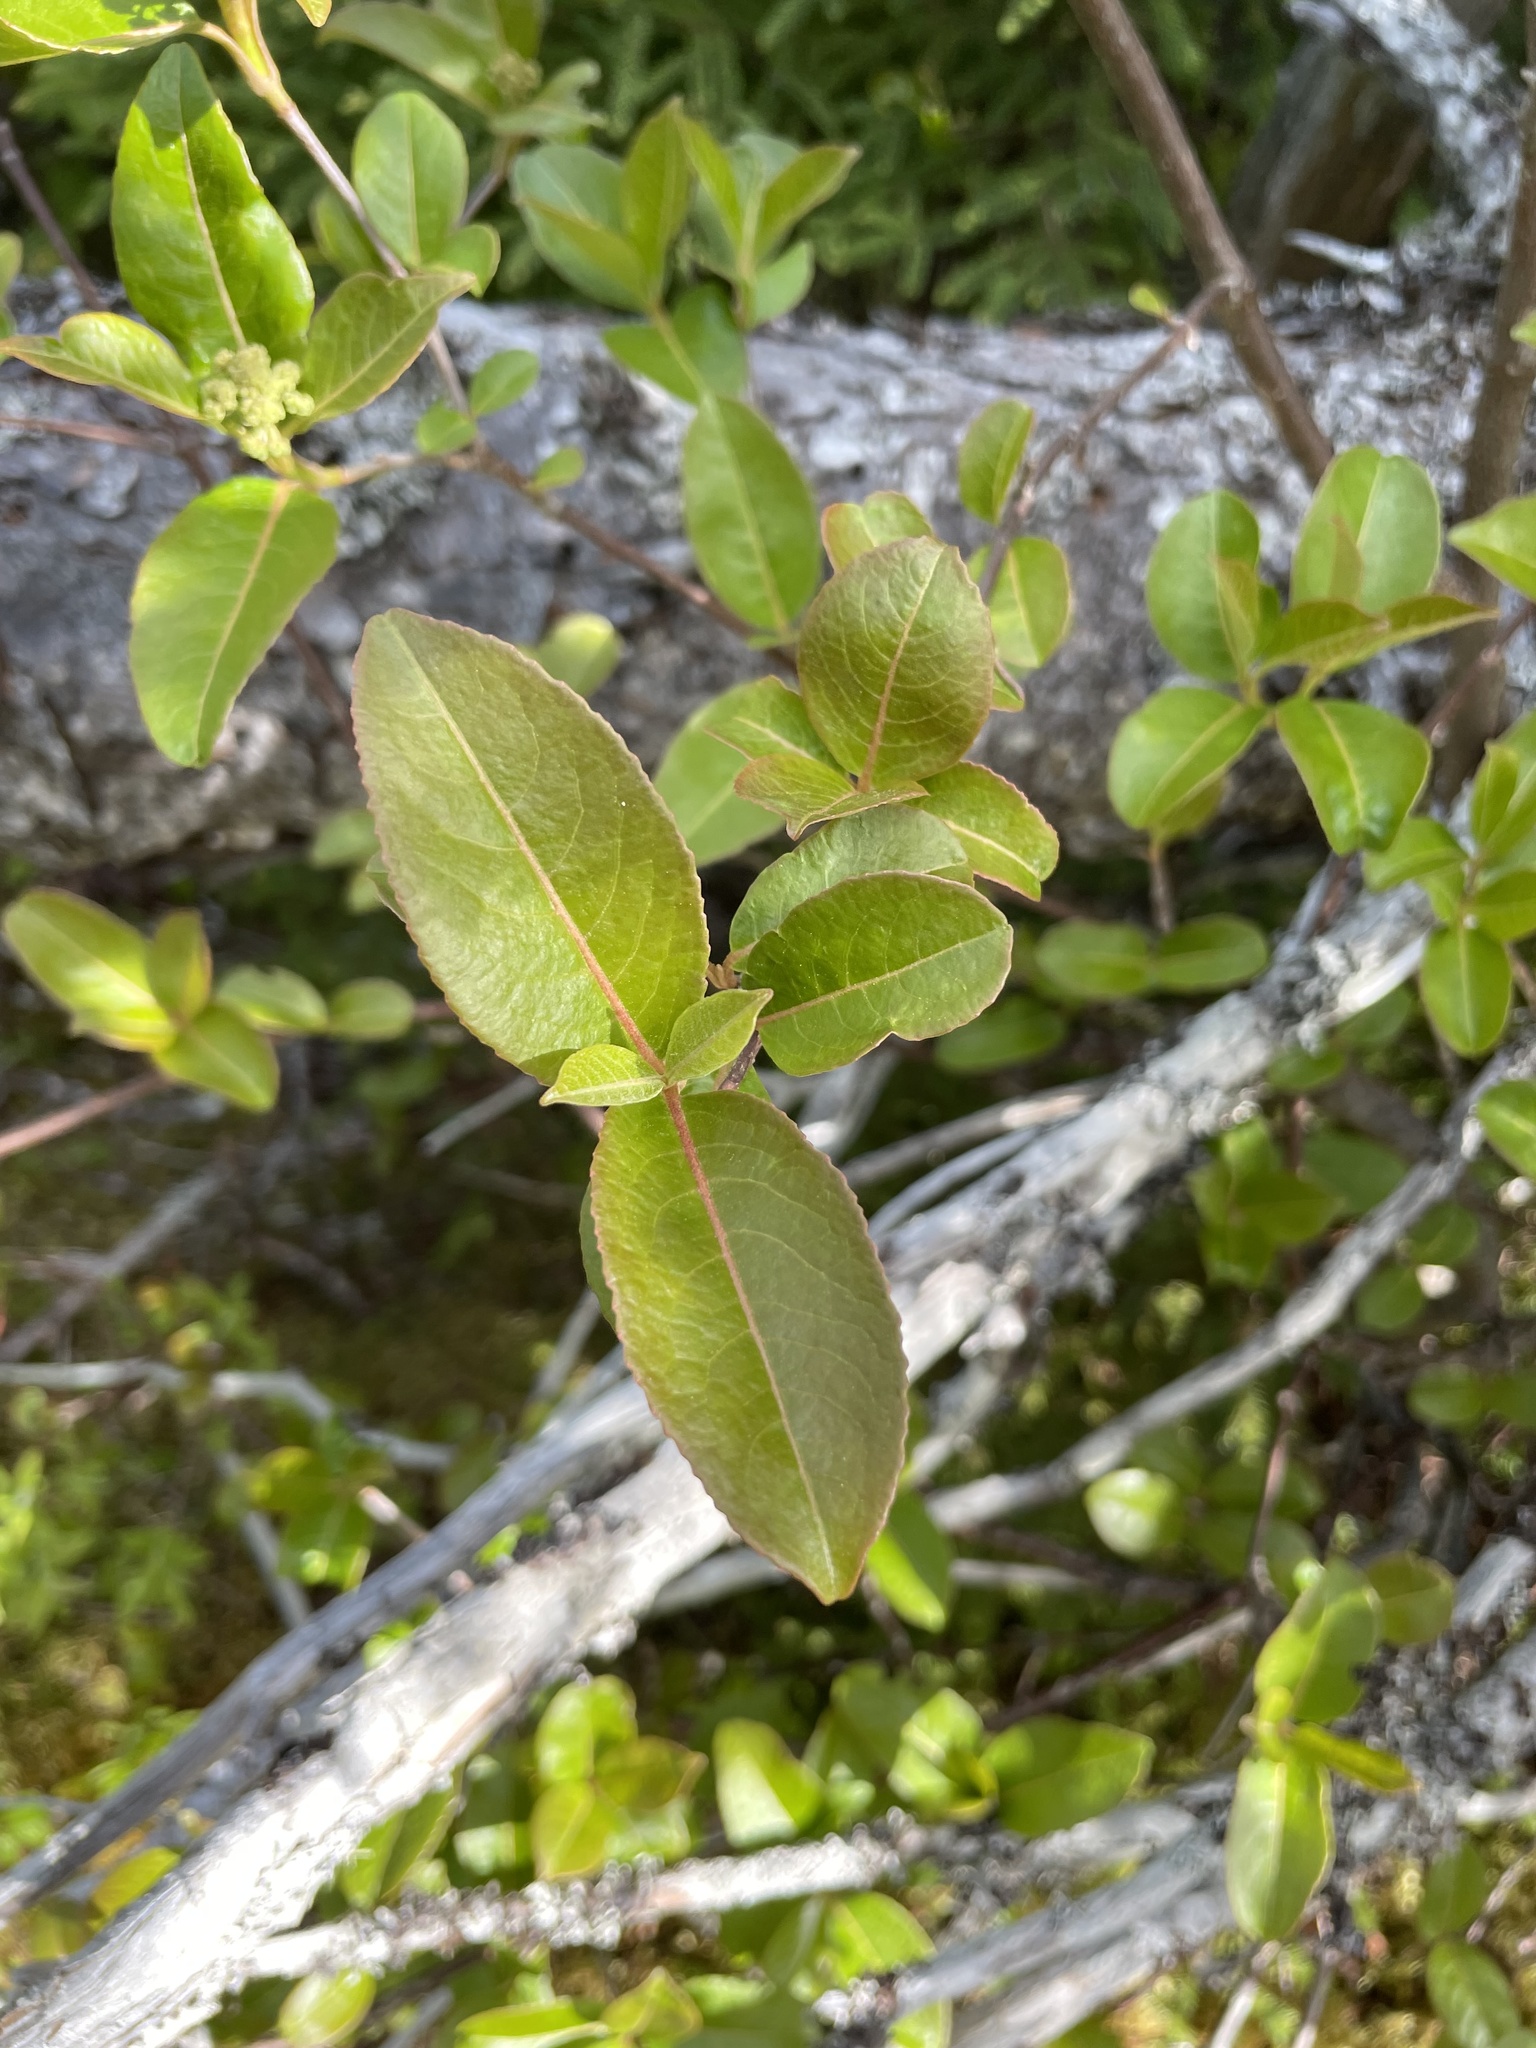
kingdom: Plantae
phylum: Tracheophyta
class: Magnoliopsida
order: Dipsacales
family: Viburnaceae
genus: Viburnum
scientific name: Viburnum cassinoides
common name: Swamp haw
